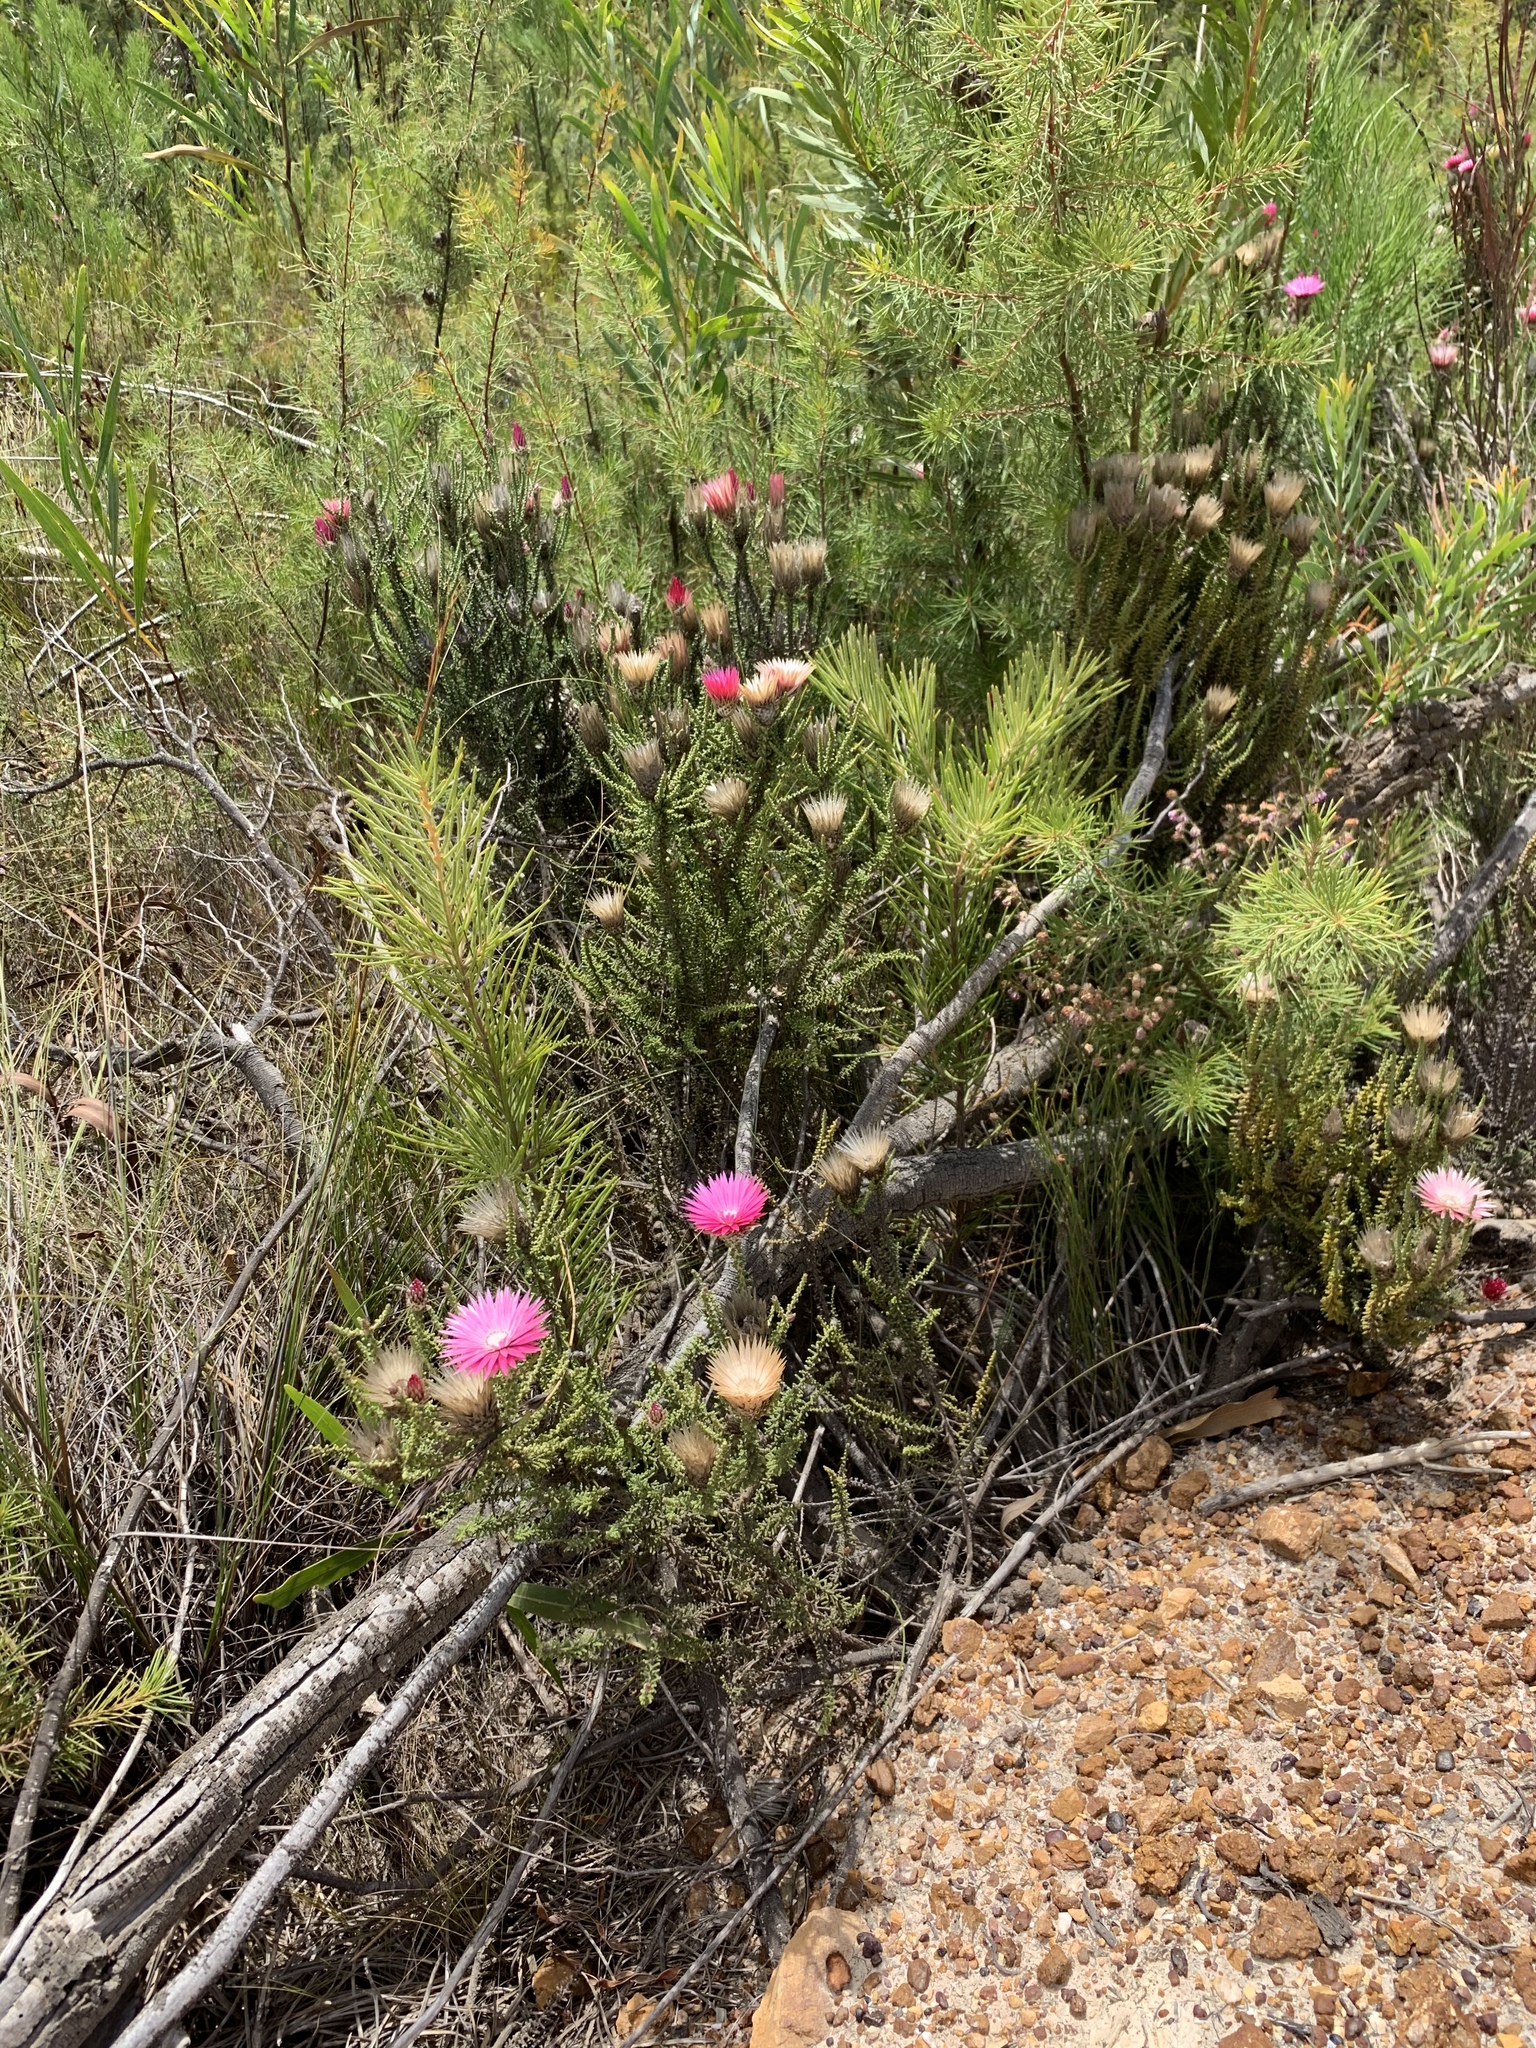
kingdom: Plantae
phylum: Tracheophyta
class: Magnoliopsida
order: Asterales
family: Asteraceae
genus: Phaenocoma
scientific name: Phaenocoma prolifera
